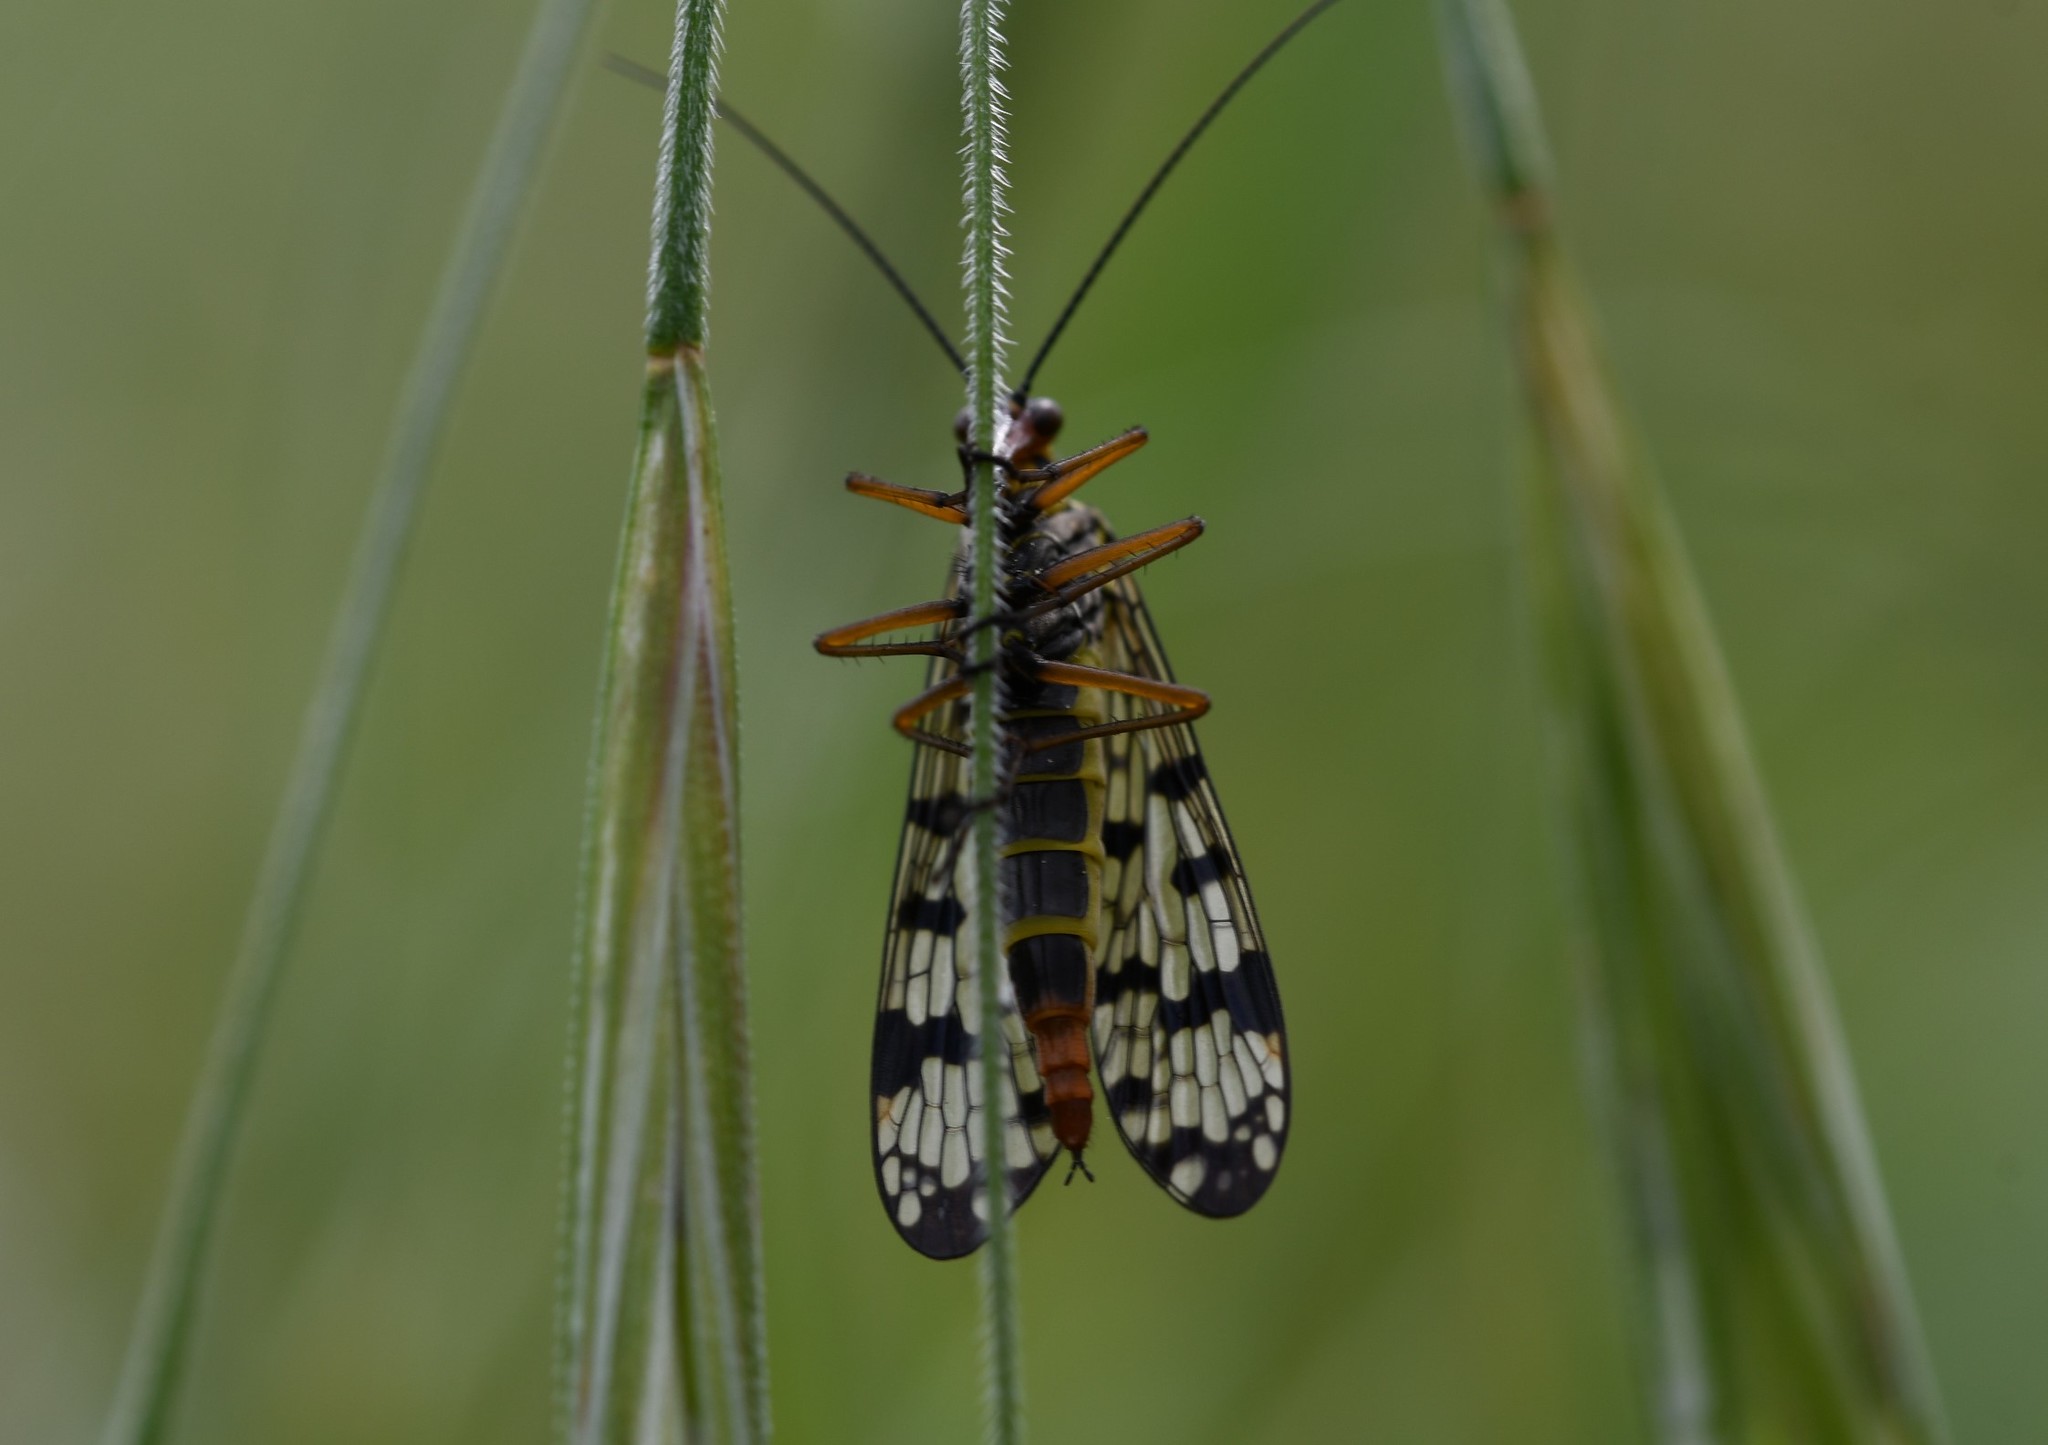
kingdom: Animalia
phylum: Arthropoda
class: Insecta
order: Mecoptera
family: Panorpidae
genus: Panorpa
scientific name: Panorpa meridionalis
